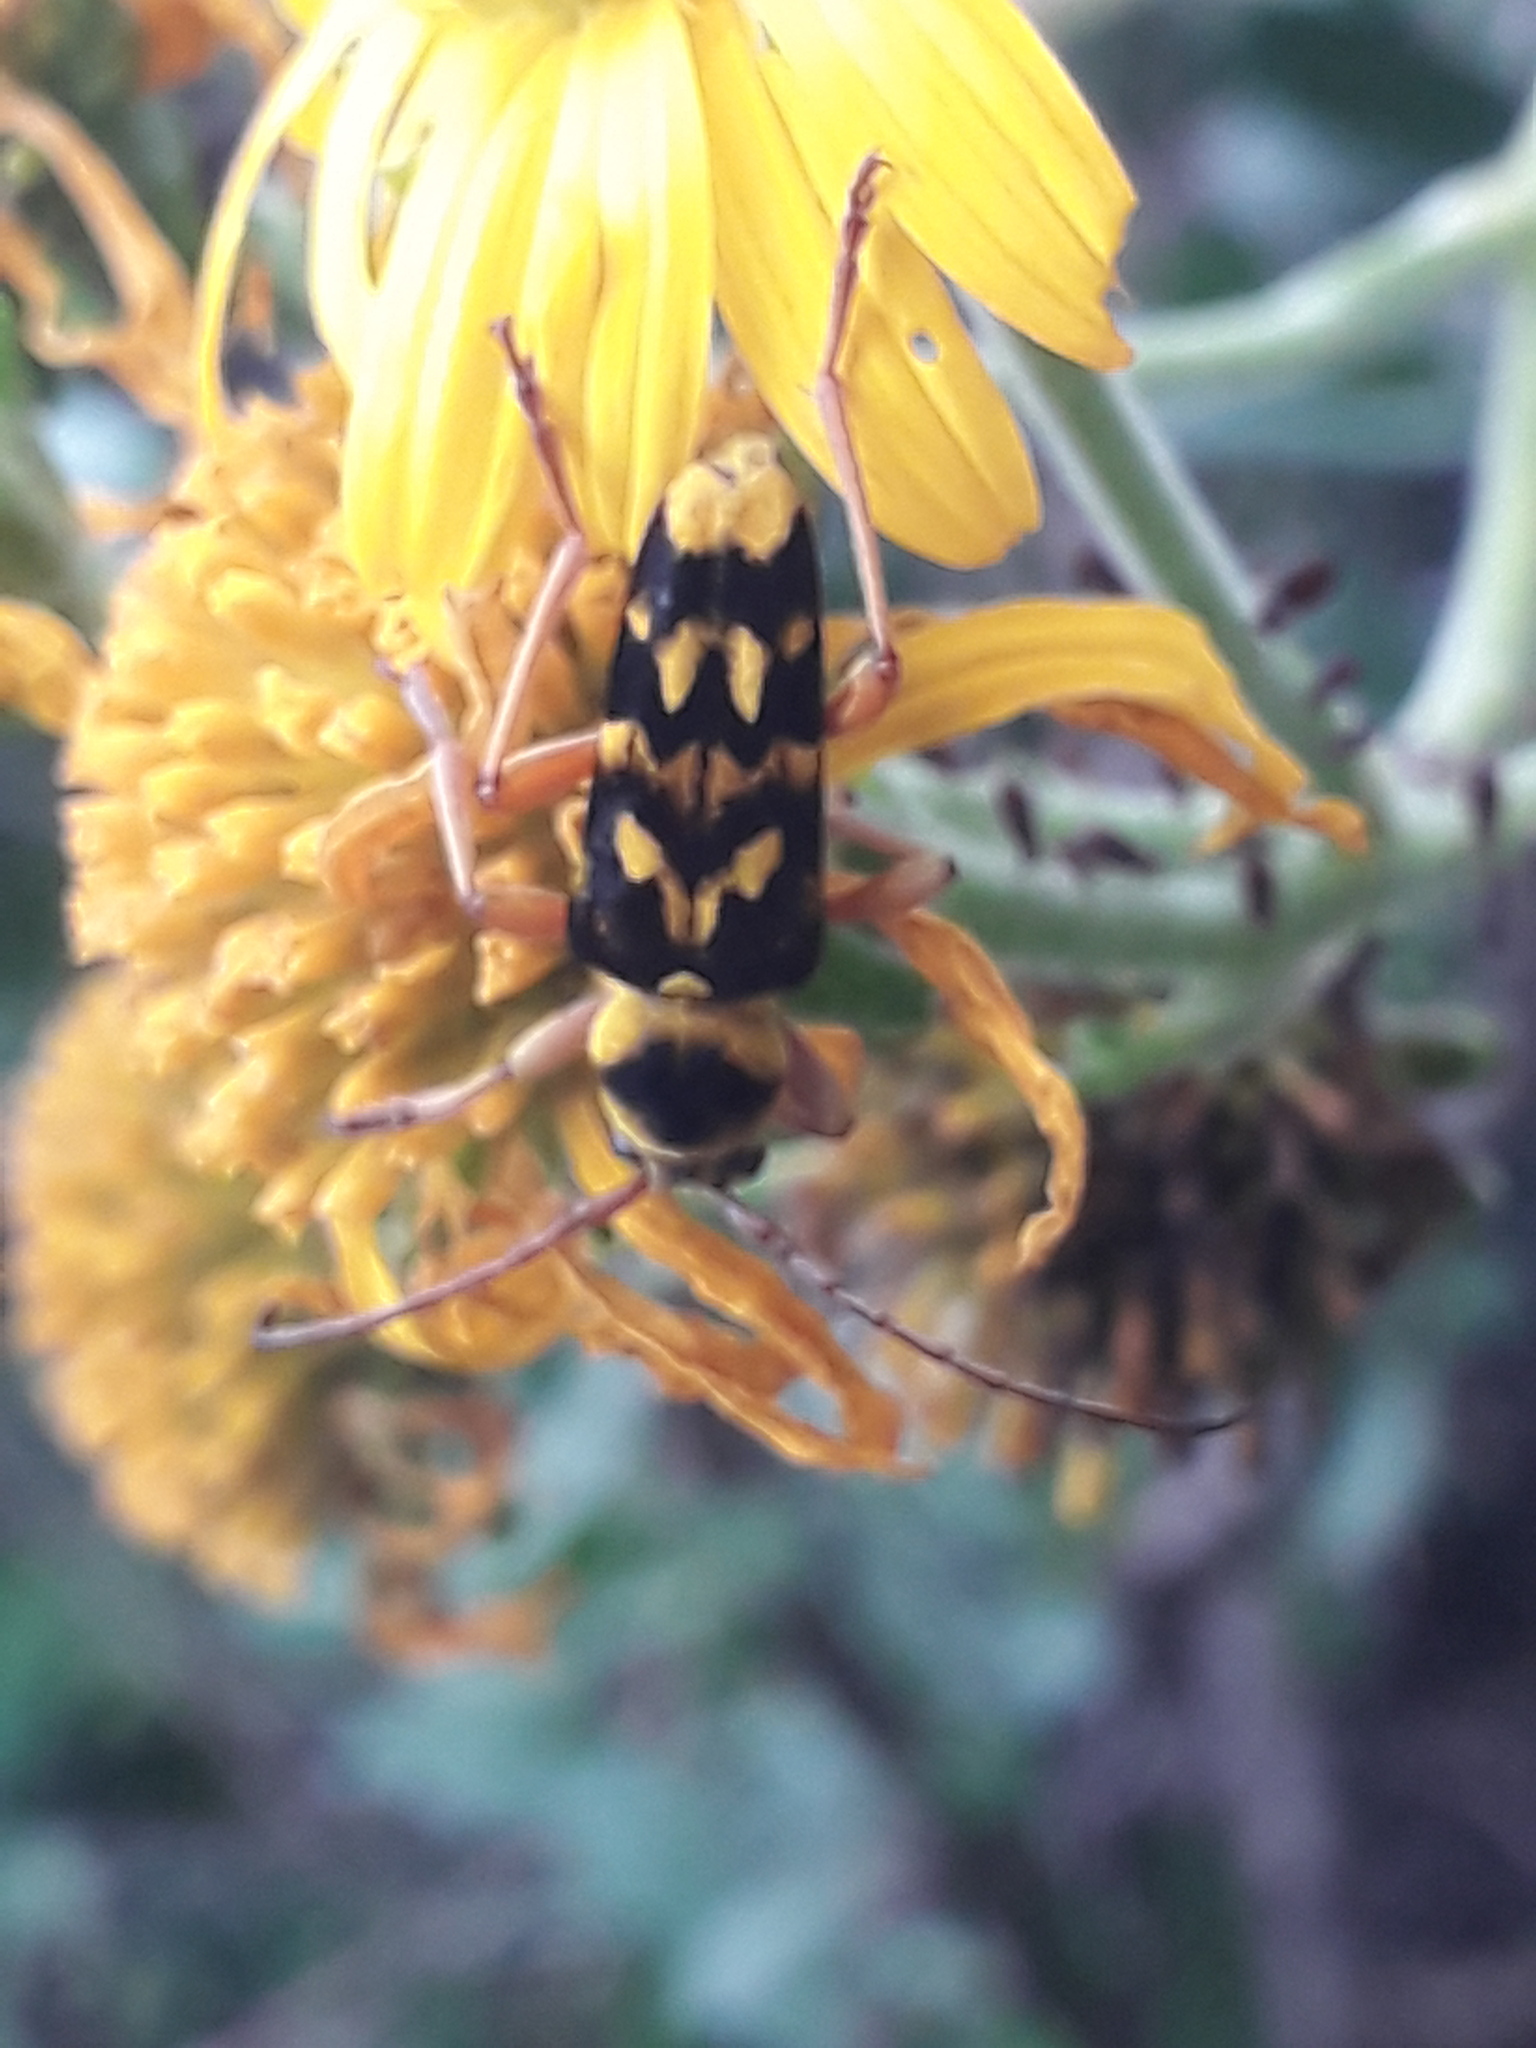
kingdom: Animalia
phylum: Arthropoda
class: Insecta
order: Coleoptera
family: Cerambycidae
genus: Ochraethes
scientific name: Ochraethes sommeri
